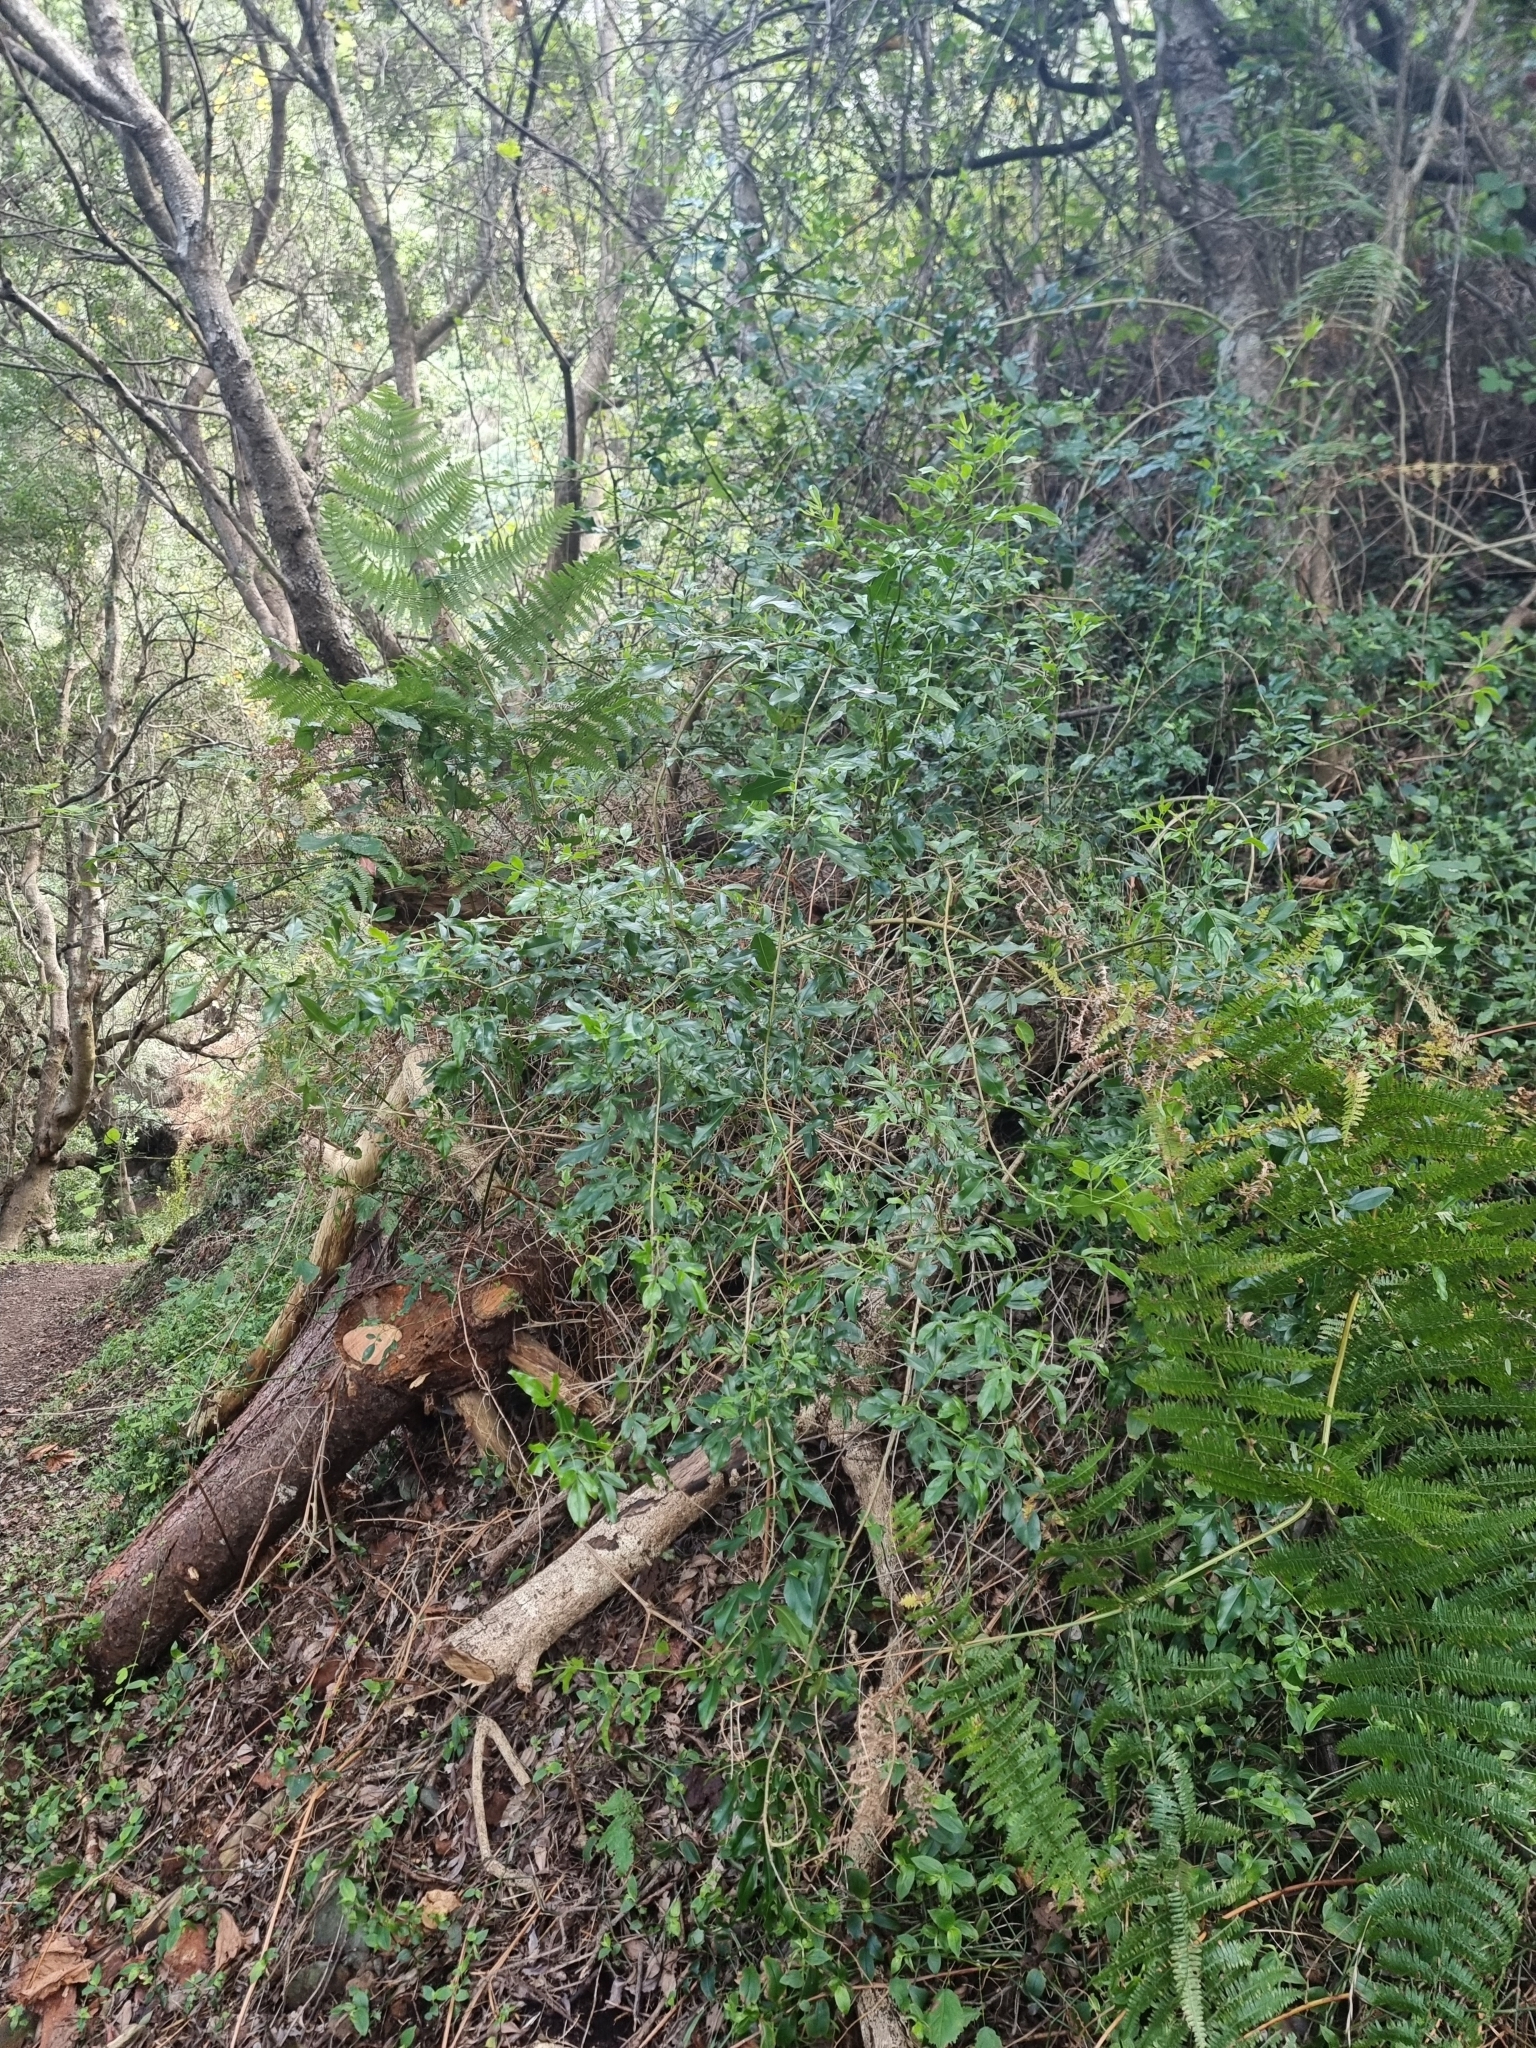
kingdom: Plantae
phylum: Tracheophyta
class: Magnoliopsida
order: Lamiales
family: Oleaceae
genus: Chrysojasminum
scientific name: Chrysojasminum odoratissimum
